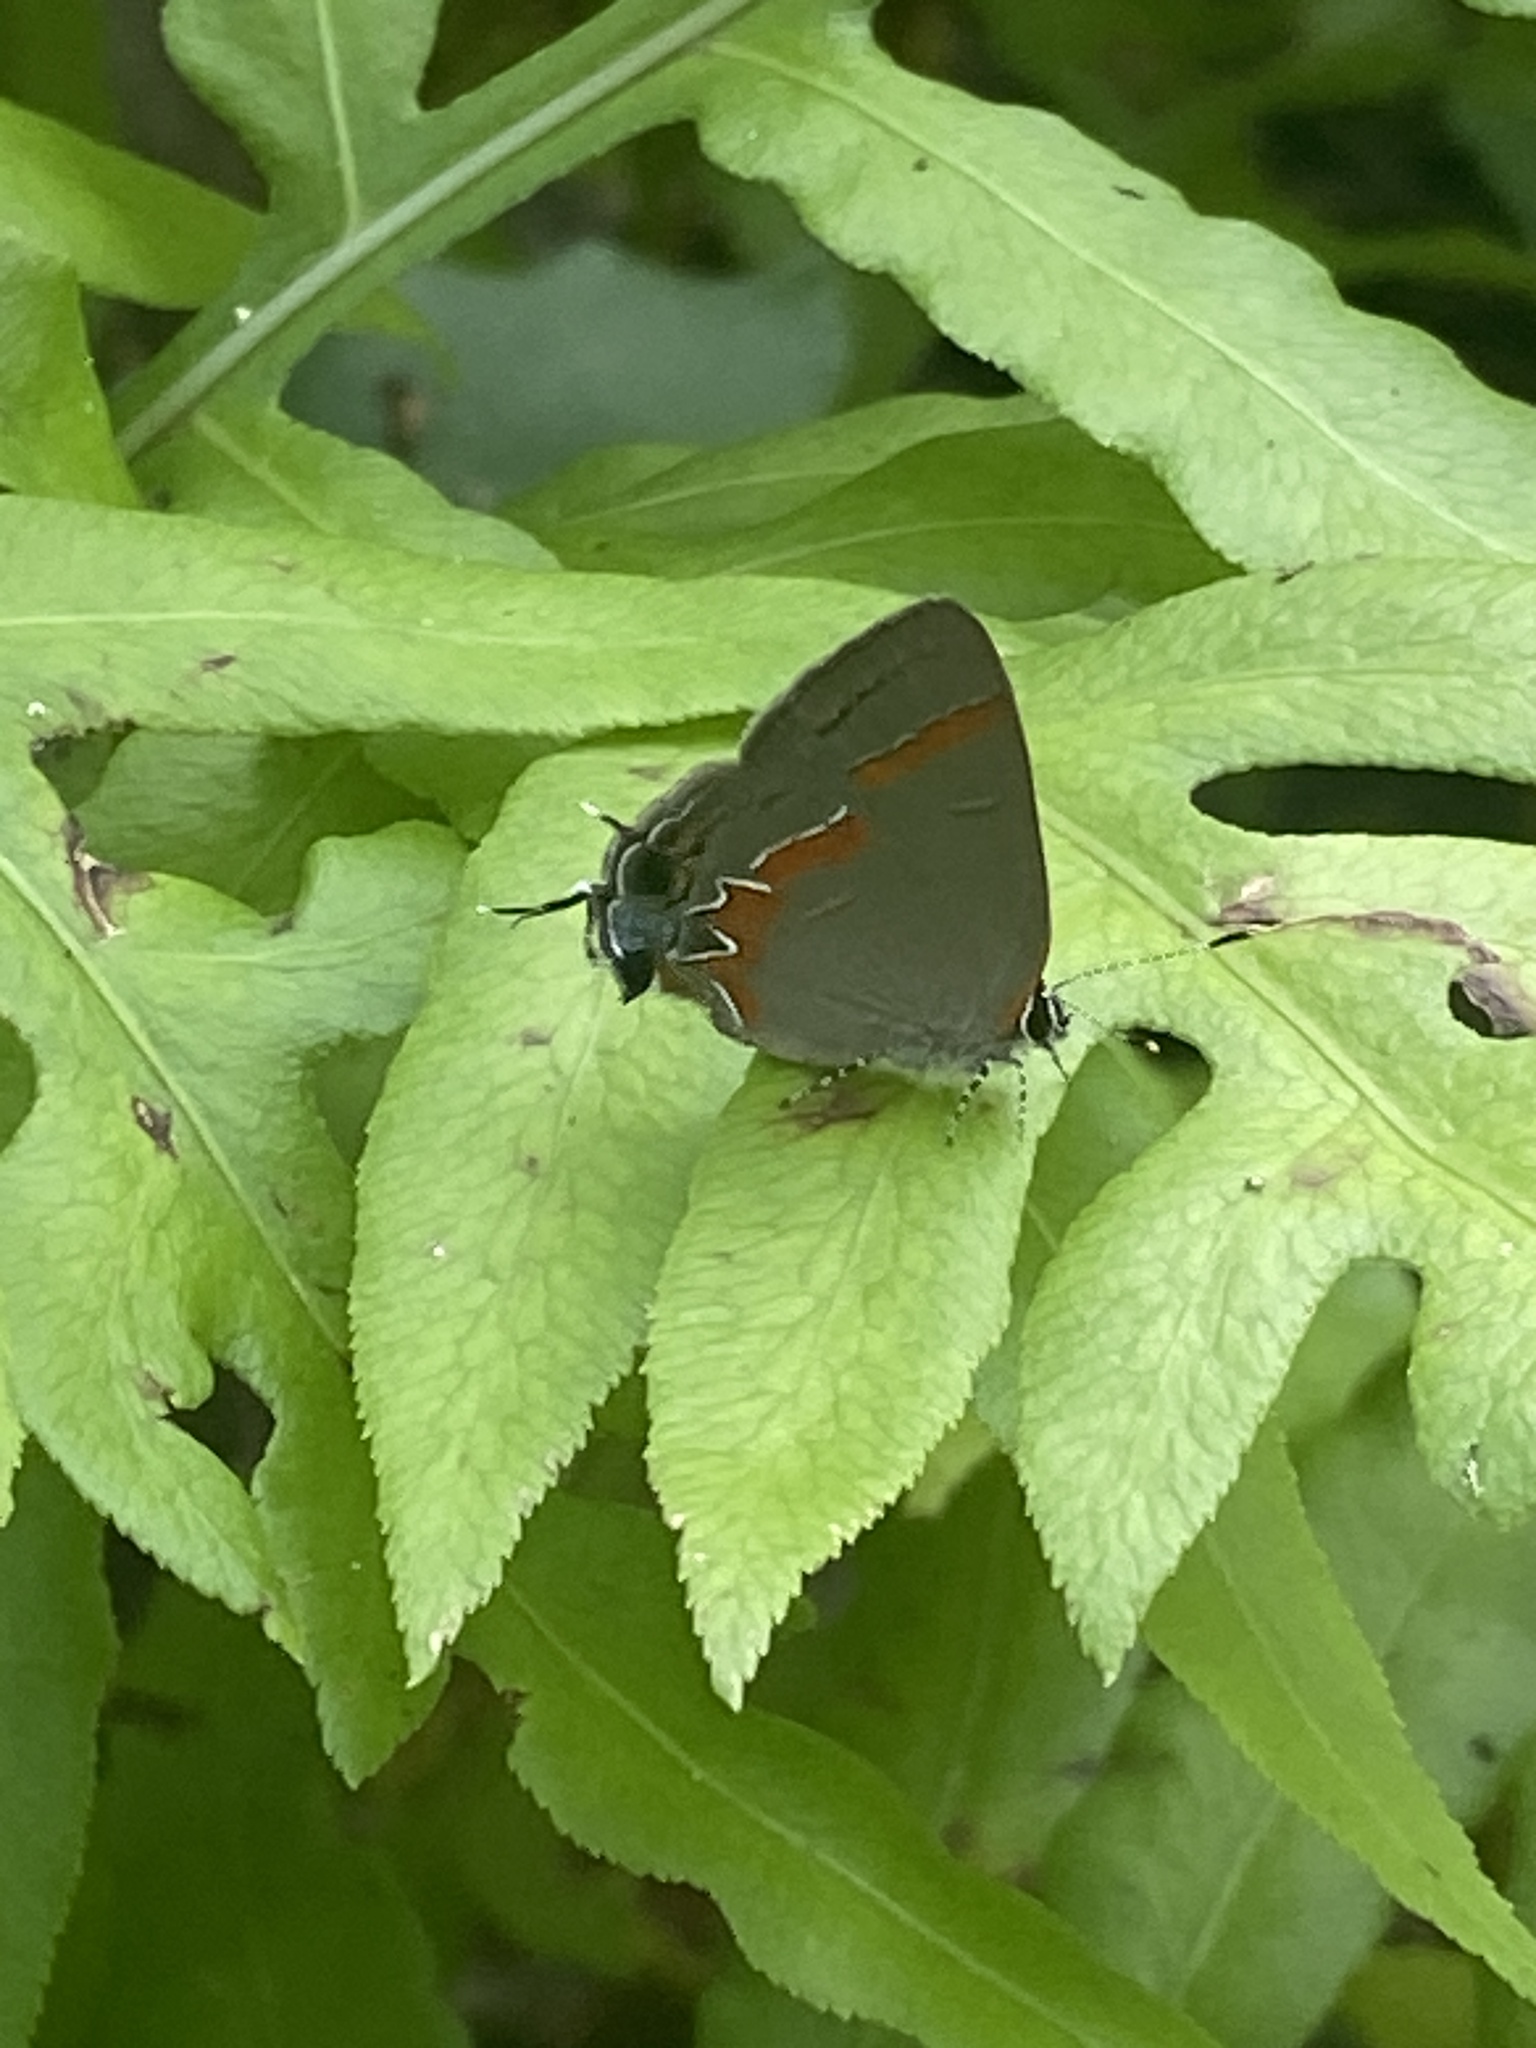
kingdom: Animalia
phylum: Arthropoda
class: Insecta
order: Lepidoptera
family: Lycaenidae
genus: Calycopis
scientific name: Calycopis cecrops
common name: Red-banded hairstreak
